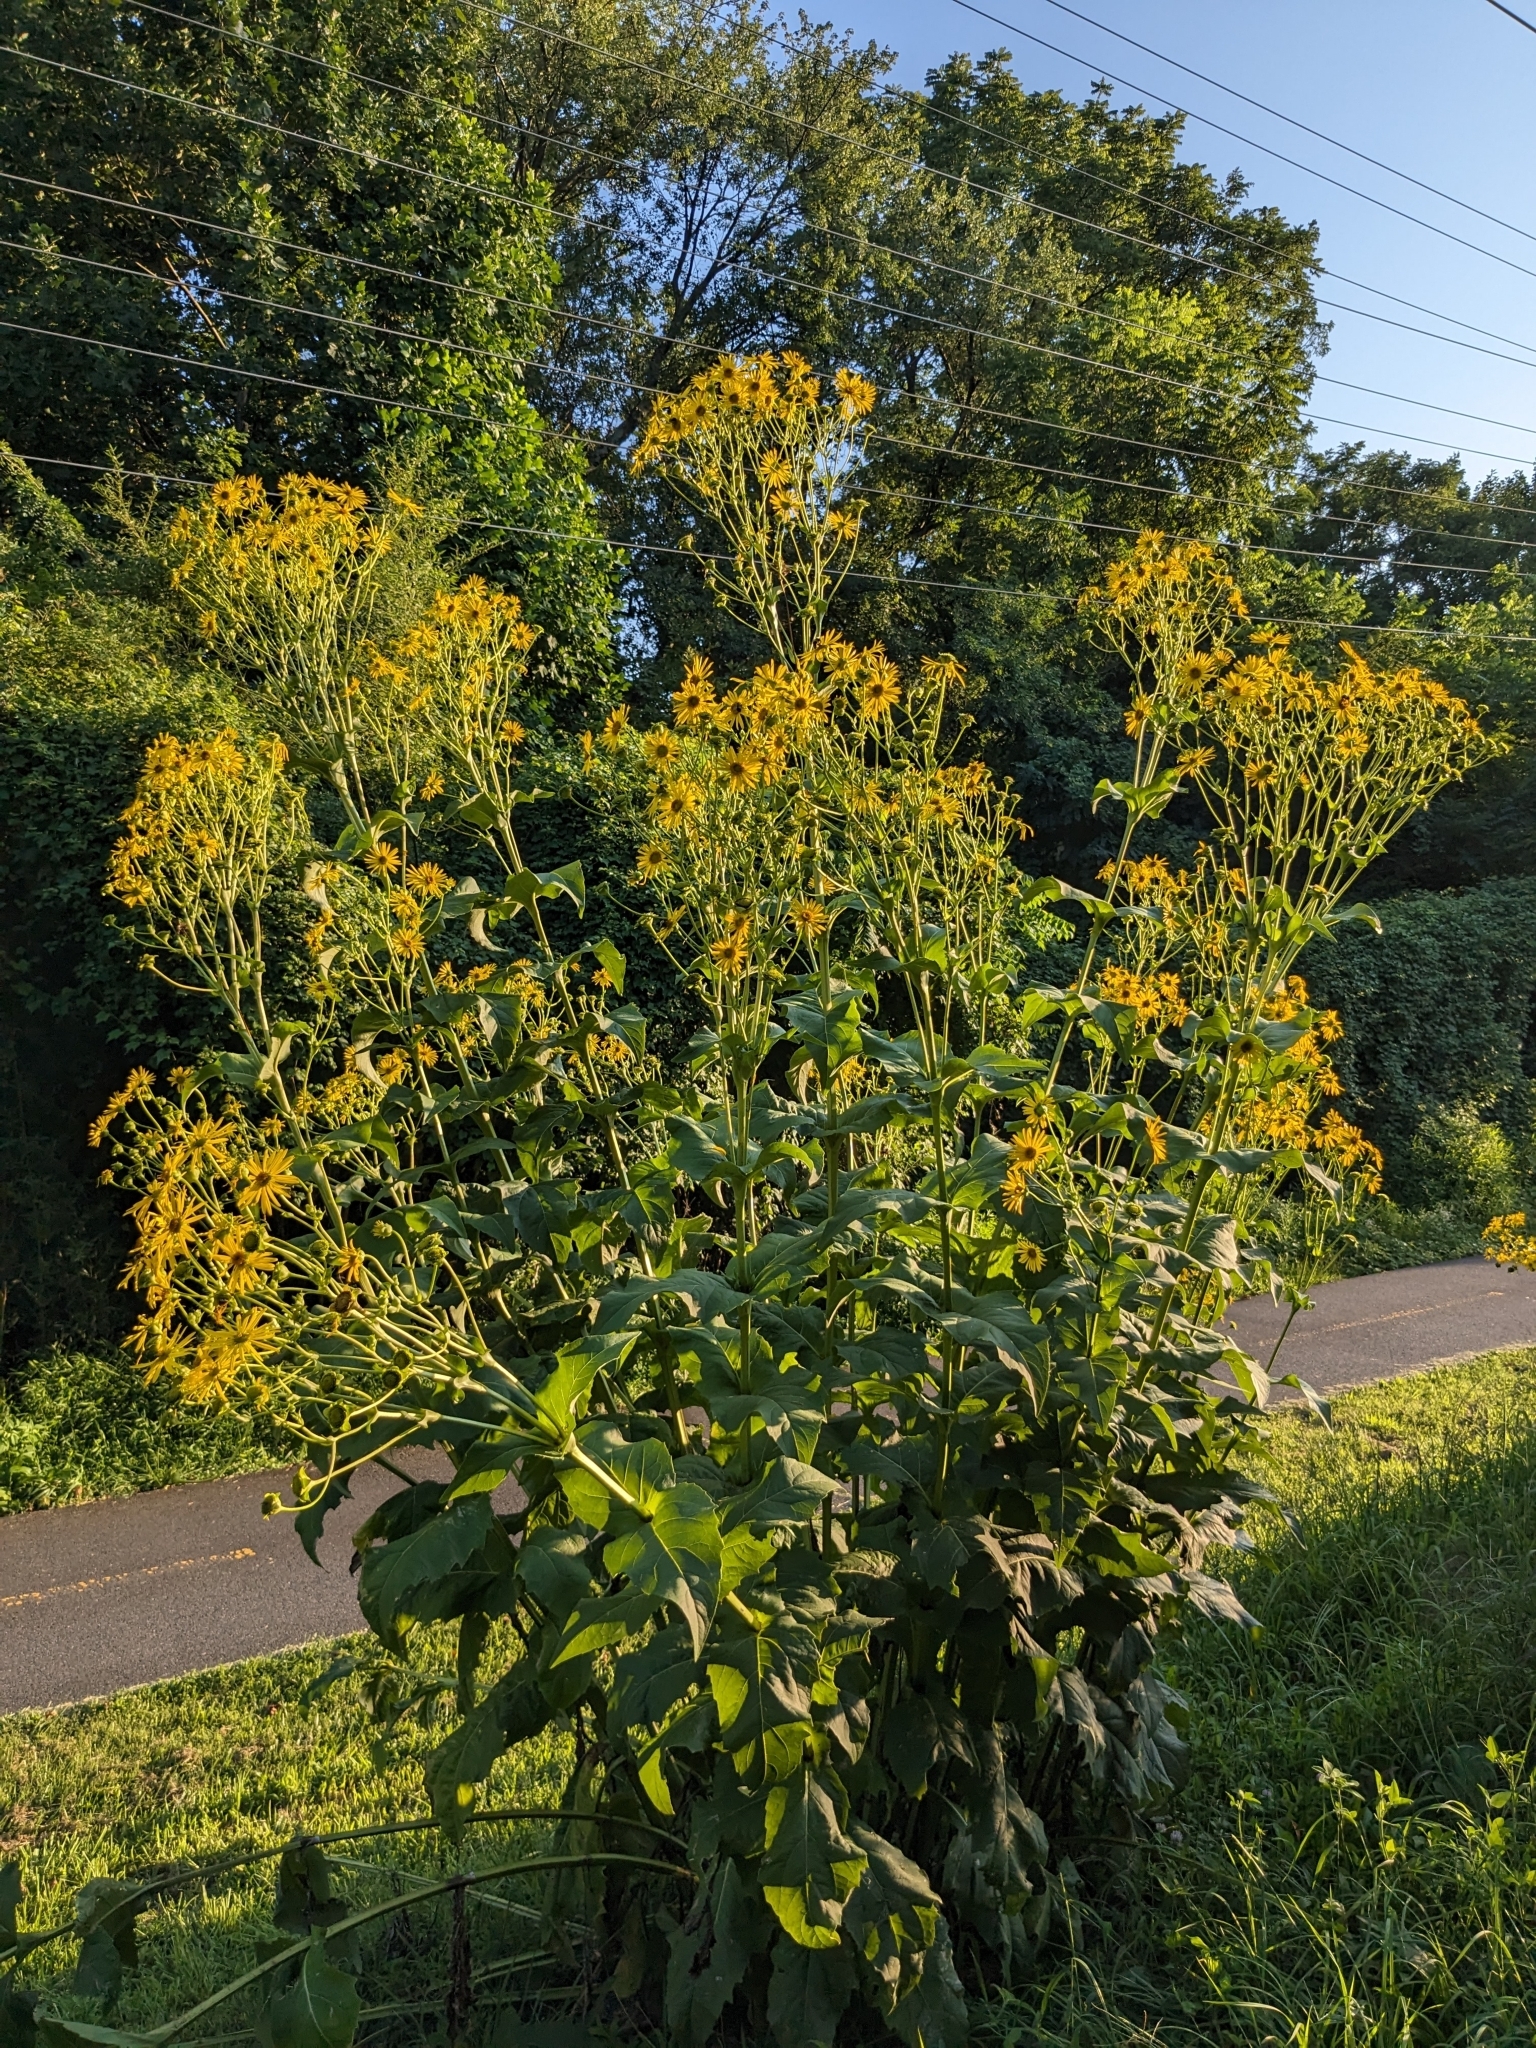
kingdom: Plantae
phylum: Tracheophyta
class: Magnoliopsida
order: Asterales
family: Asteraceae
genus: Silphium
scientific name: Silphium perfoliatum
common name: Cup-plant
